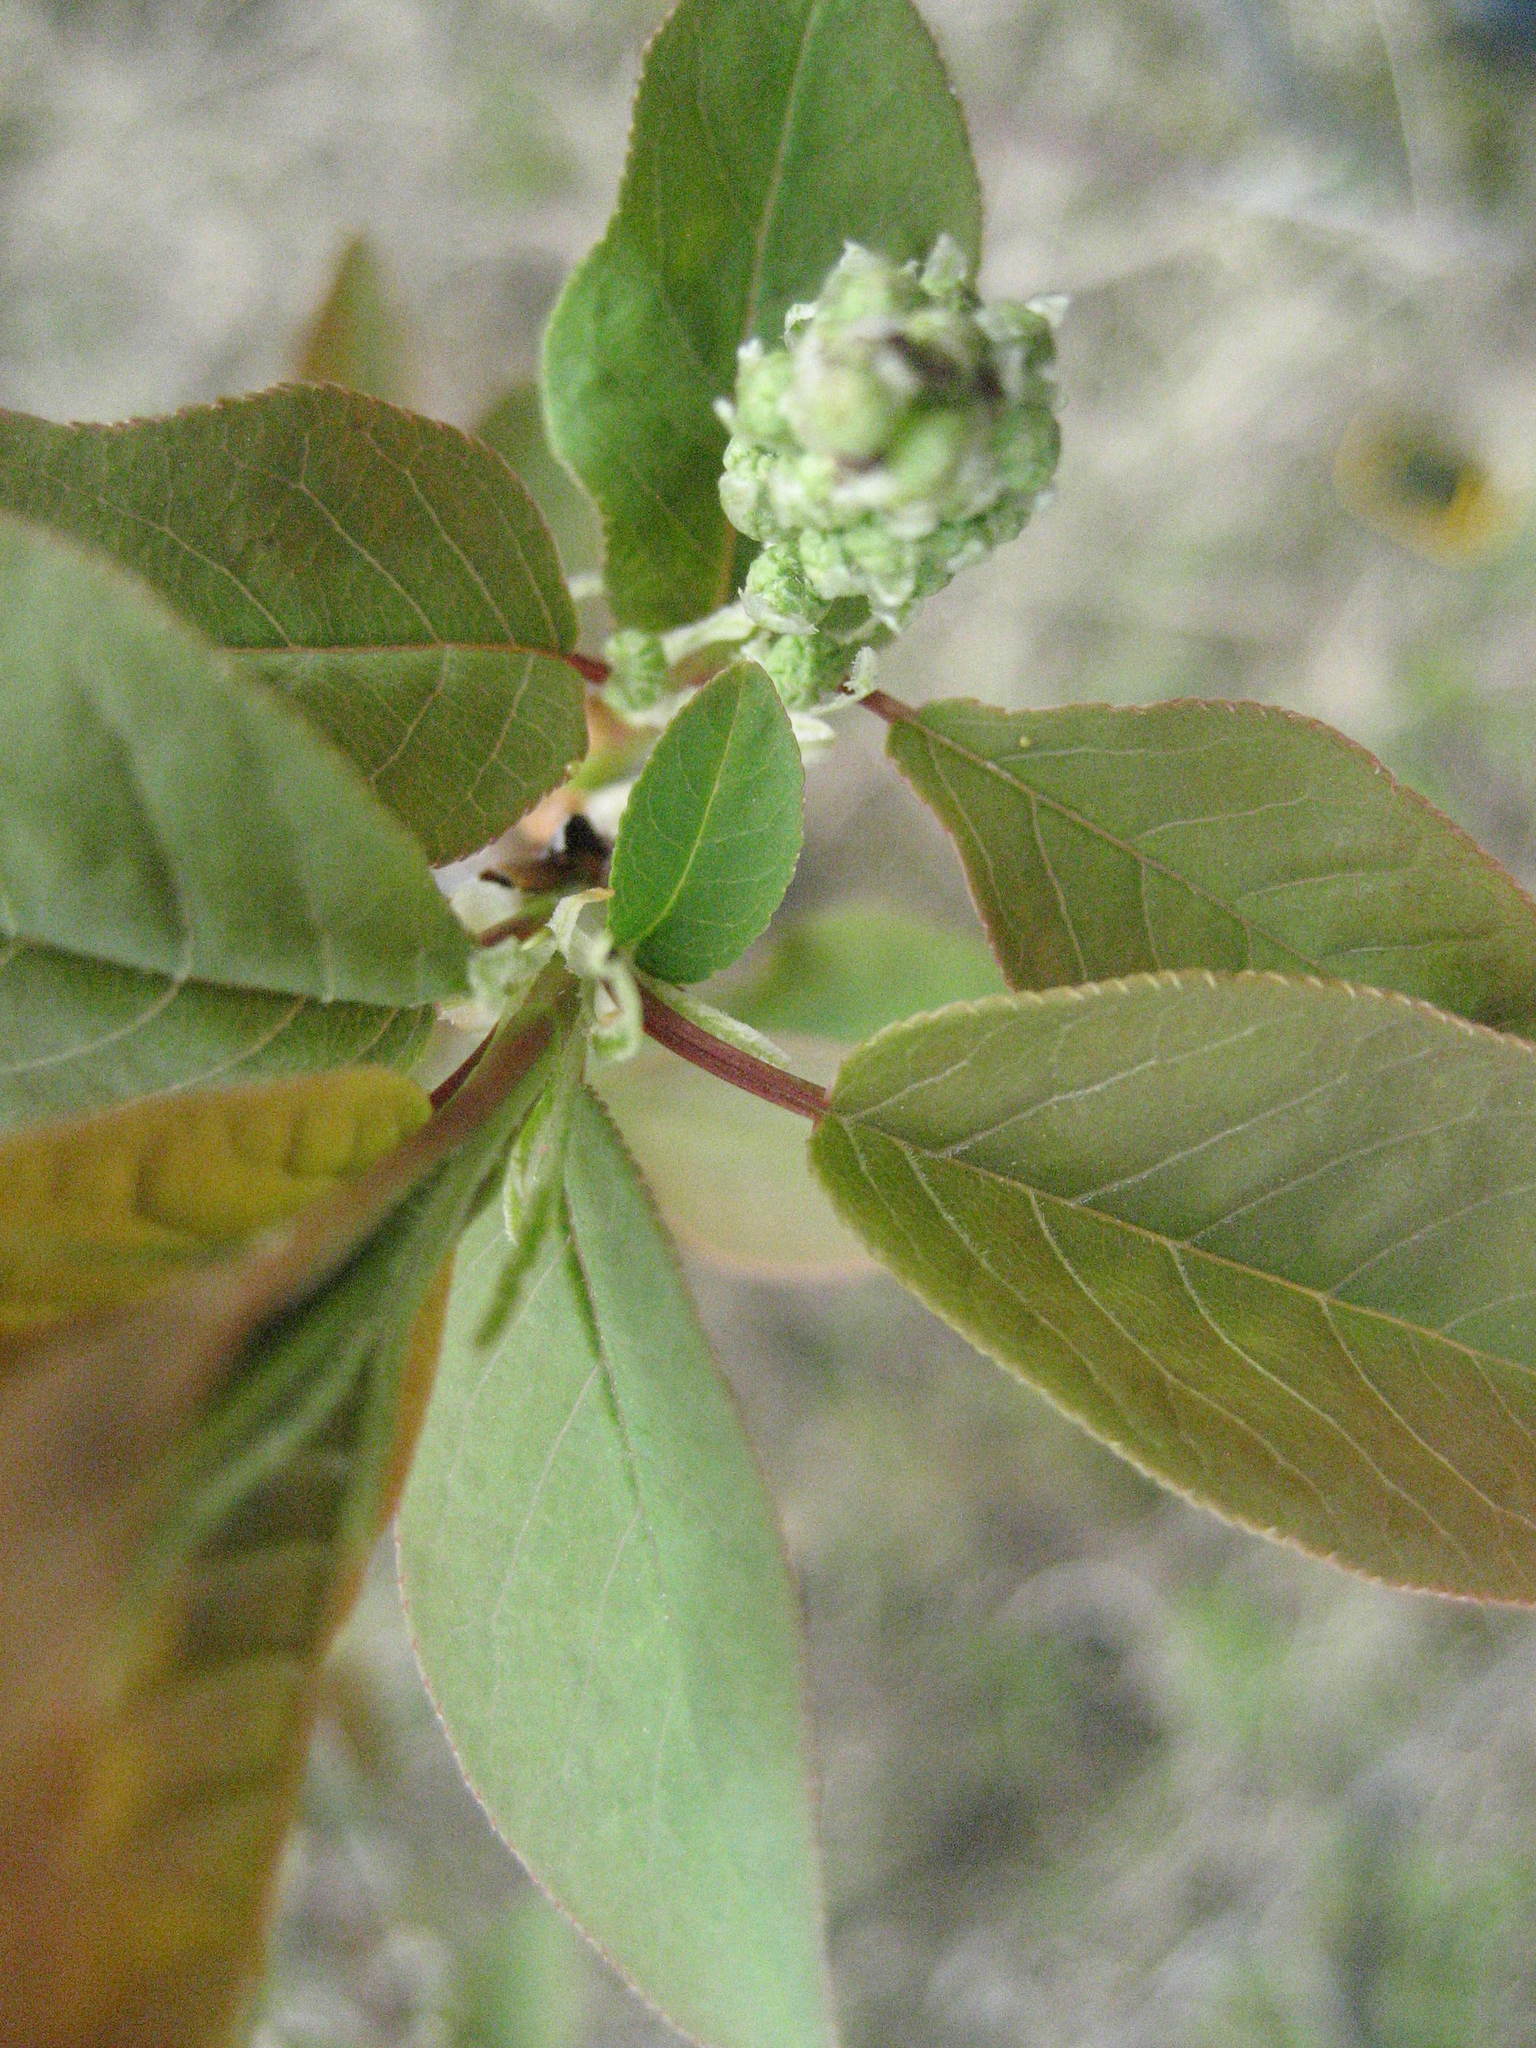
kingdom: Plantae
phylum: Tracheophyta
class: Magnoliopsida
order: Rosales
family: Rosaceae
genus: Prunus
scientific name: Prunus virginiana
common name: Chokecherry
